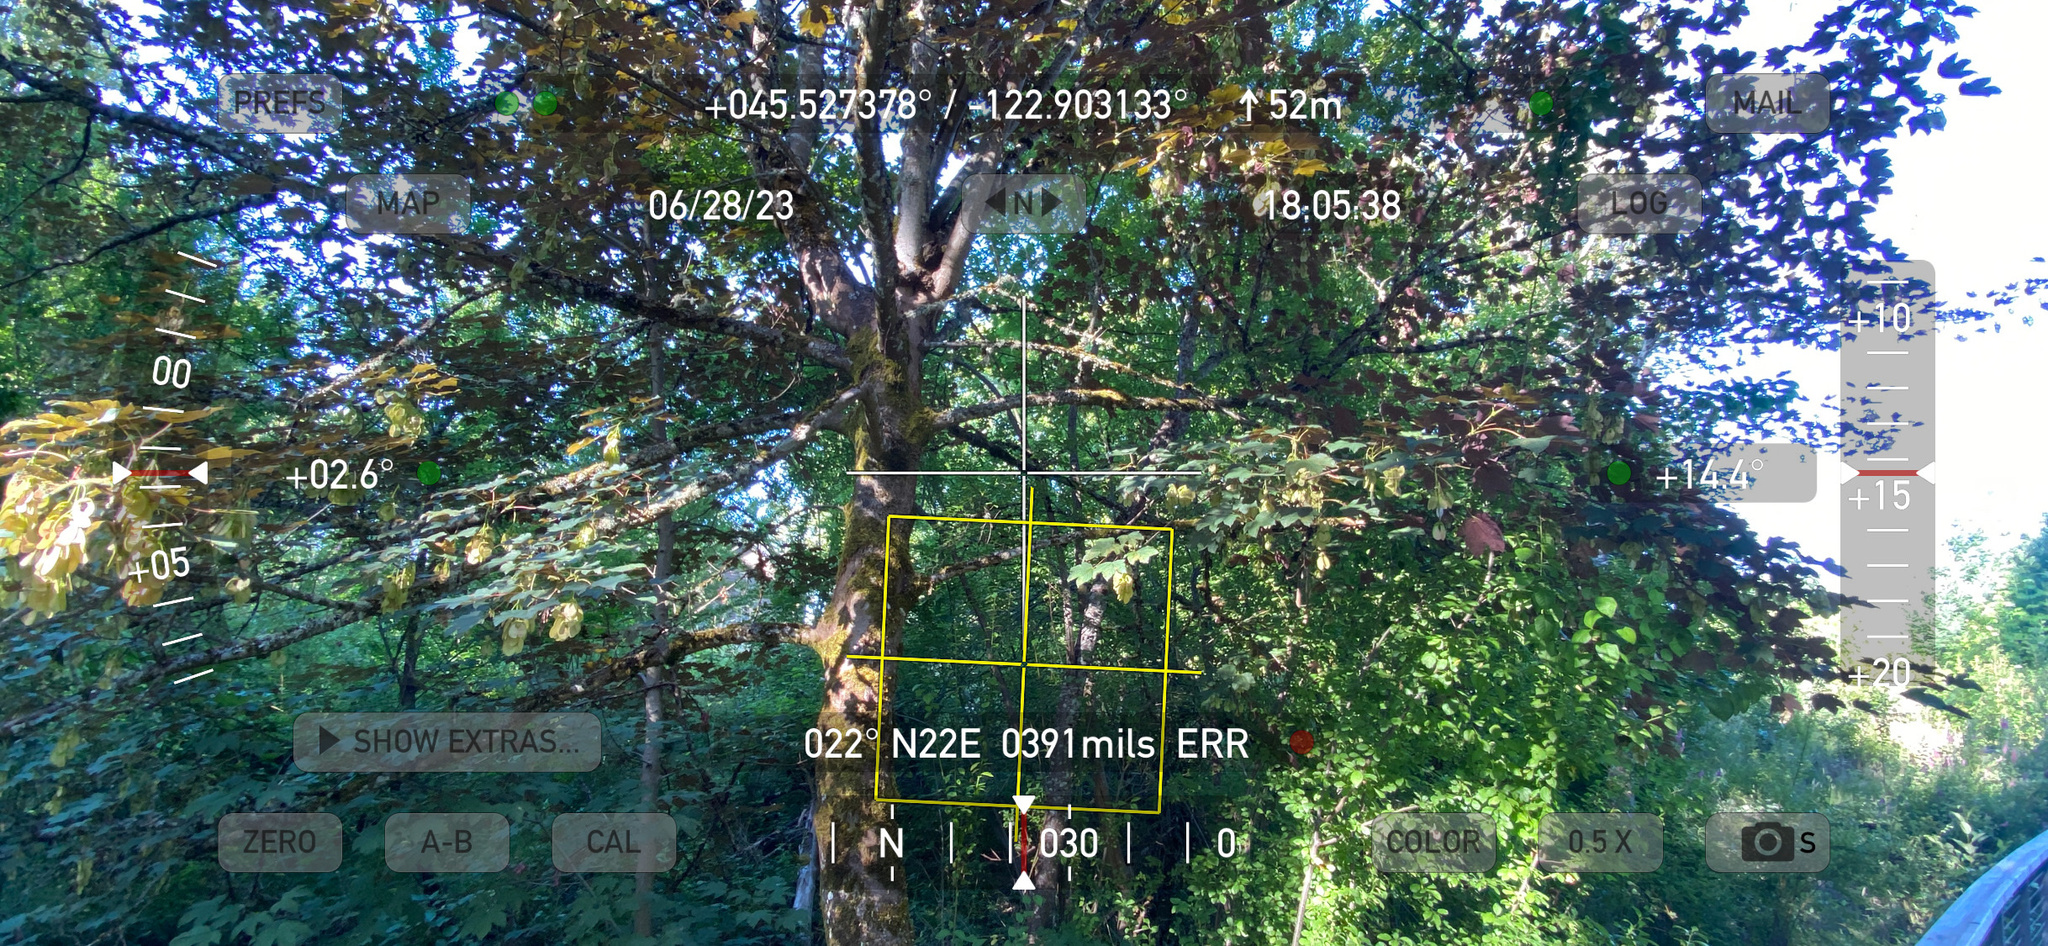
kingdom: Plantae
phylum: Tracheophyta
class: Magnoliopsida
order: Sapindales
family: Sapindaceae
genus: Acer
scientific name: Acer pseudoplatanus
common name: Sycamore
